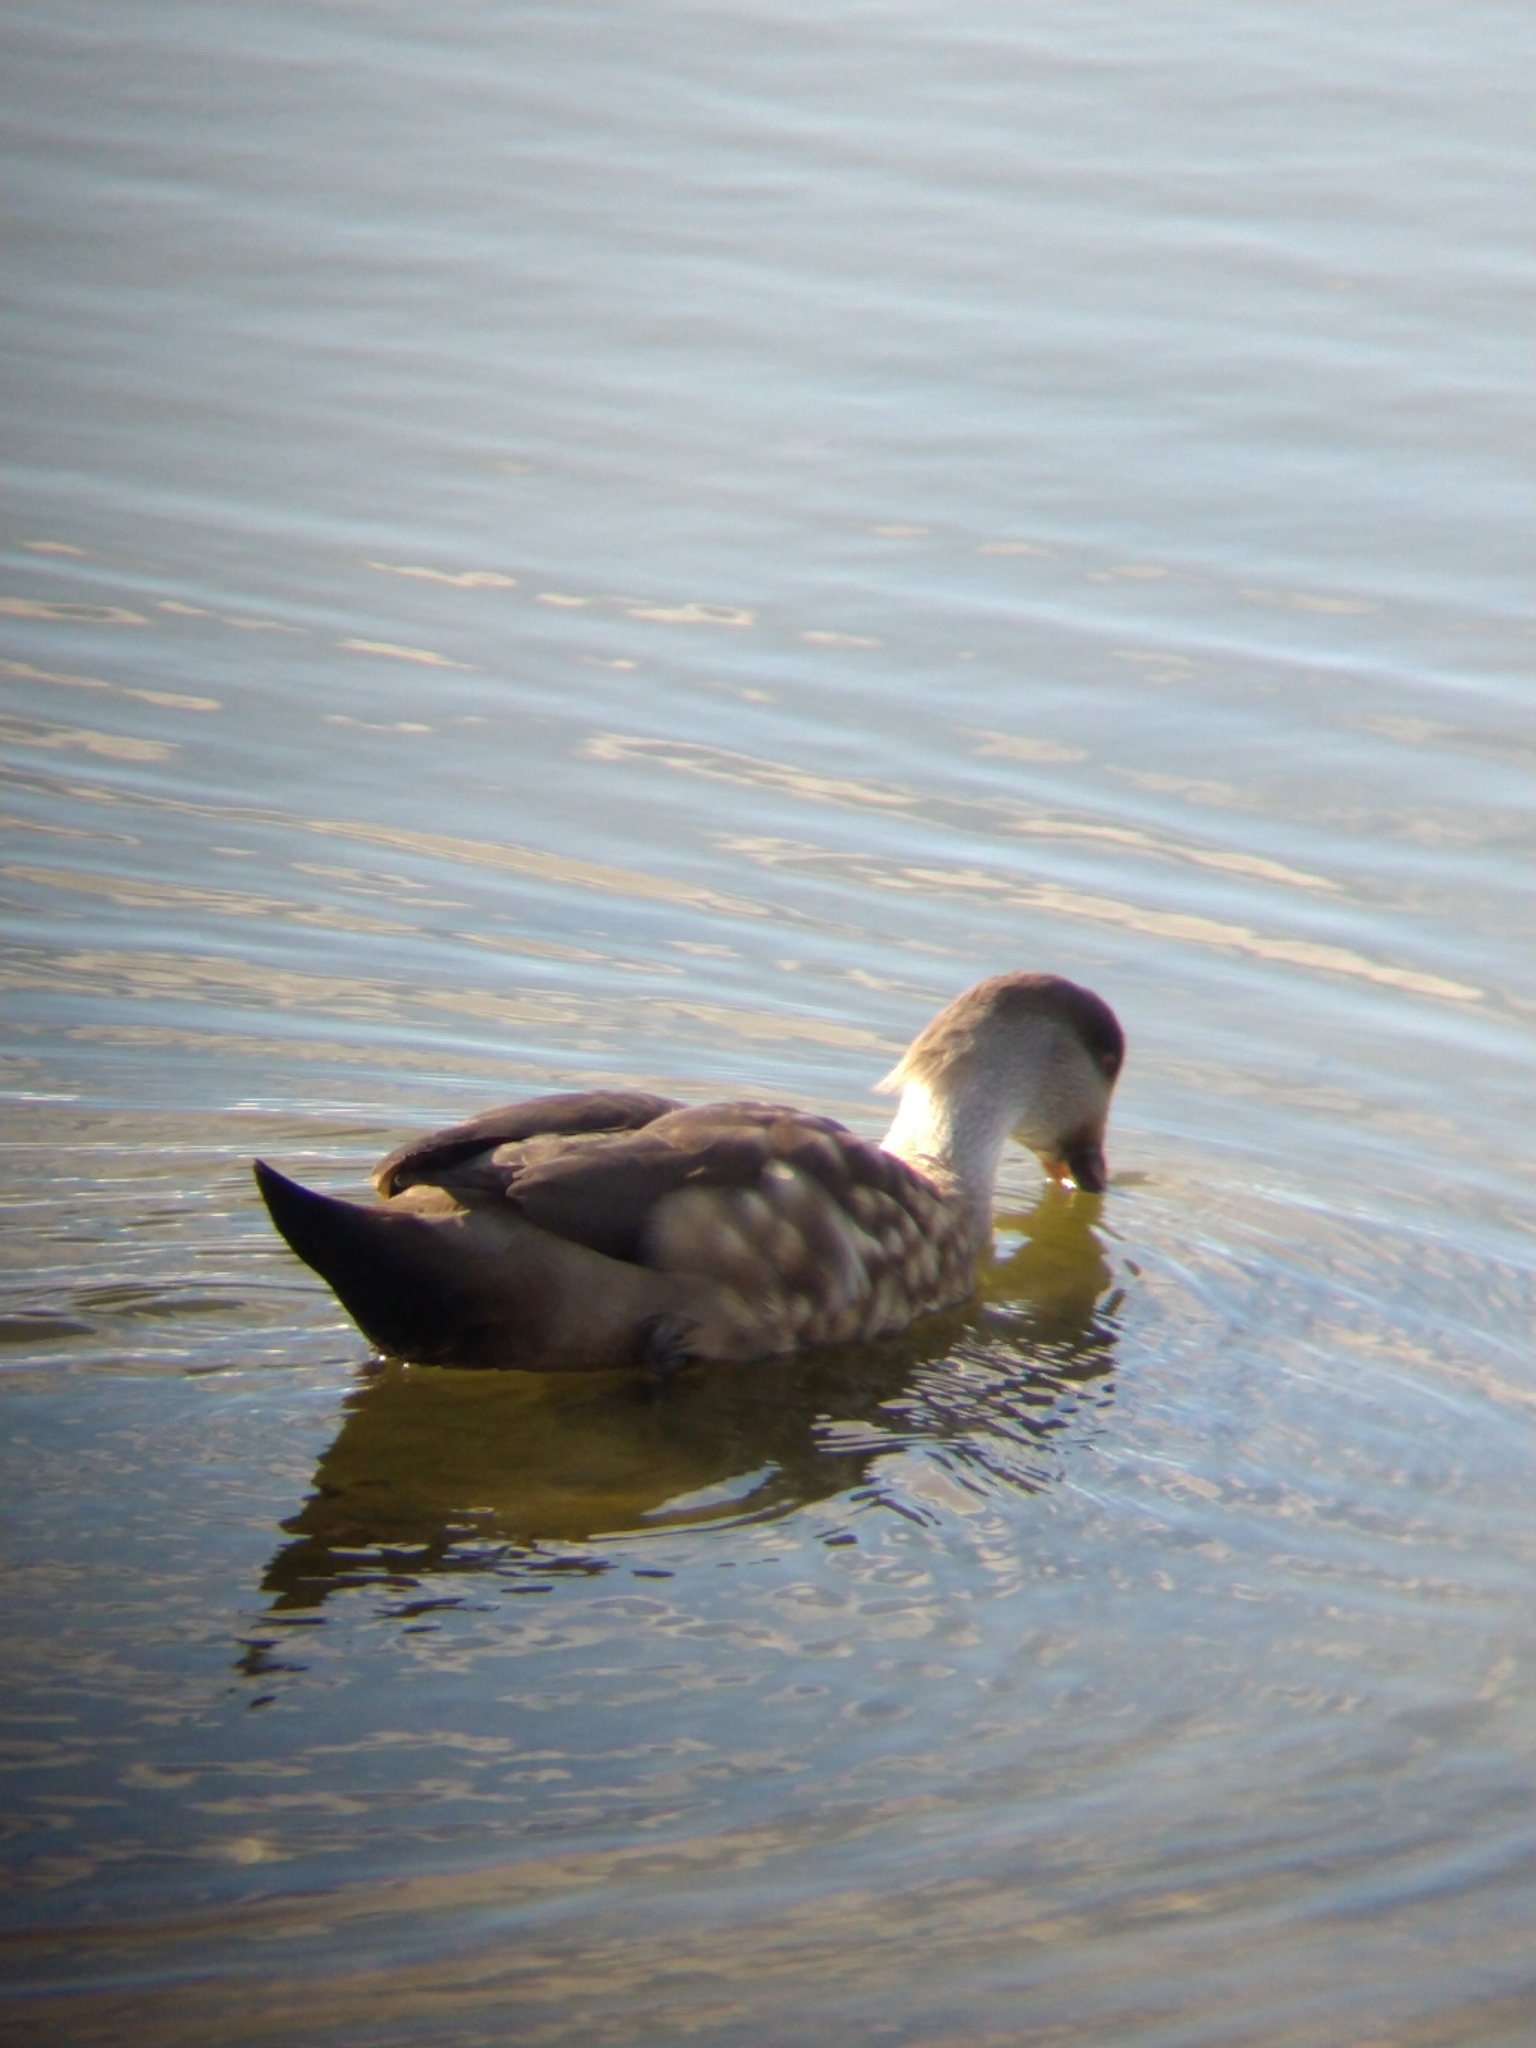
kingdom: Animalia
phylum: Chordata
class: Aves
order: Anseriformes
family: Anatidae
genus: Lophonetta
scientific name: Lophonetta specularioides
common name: Crested duck
